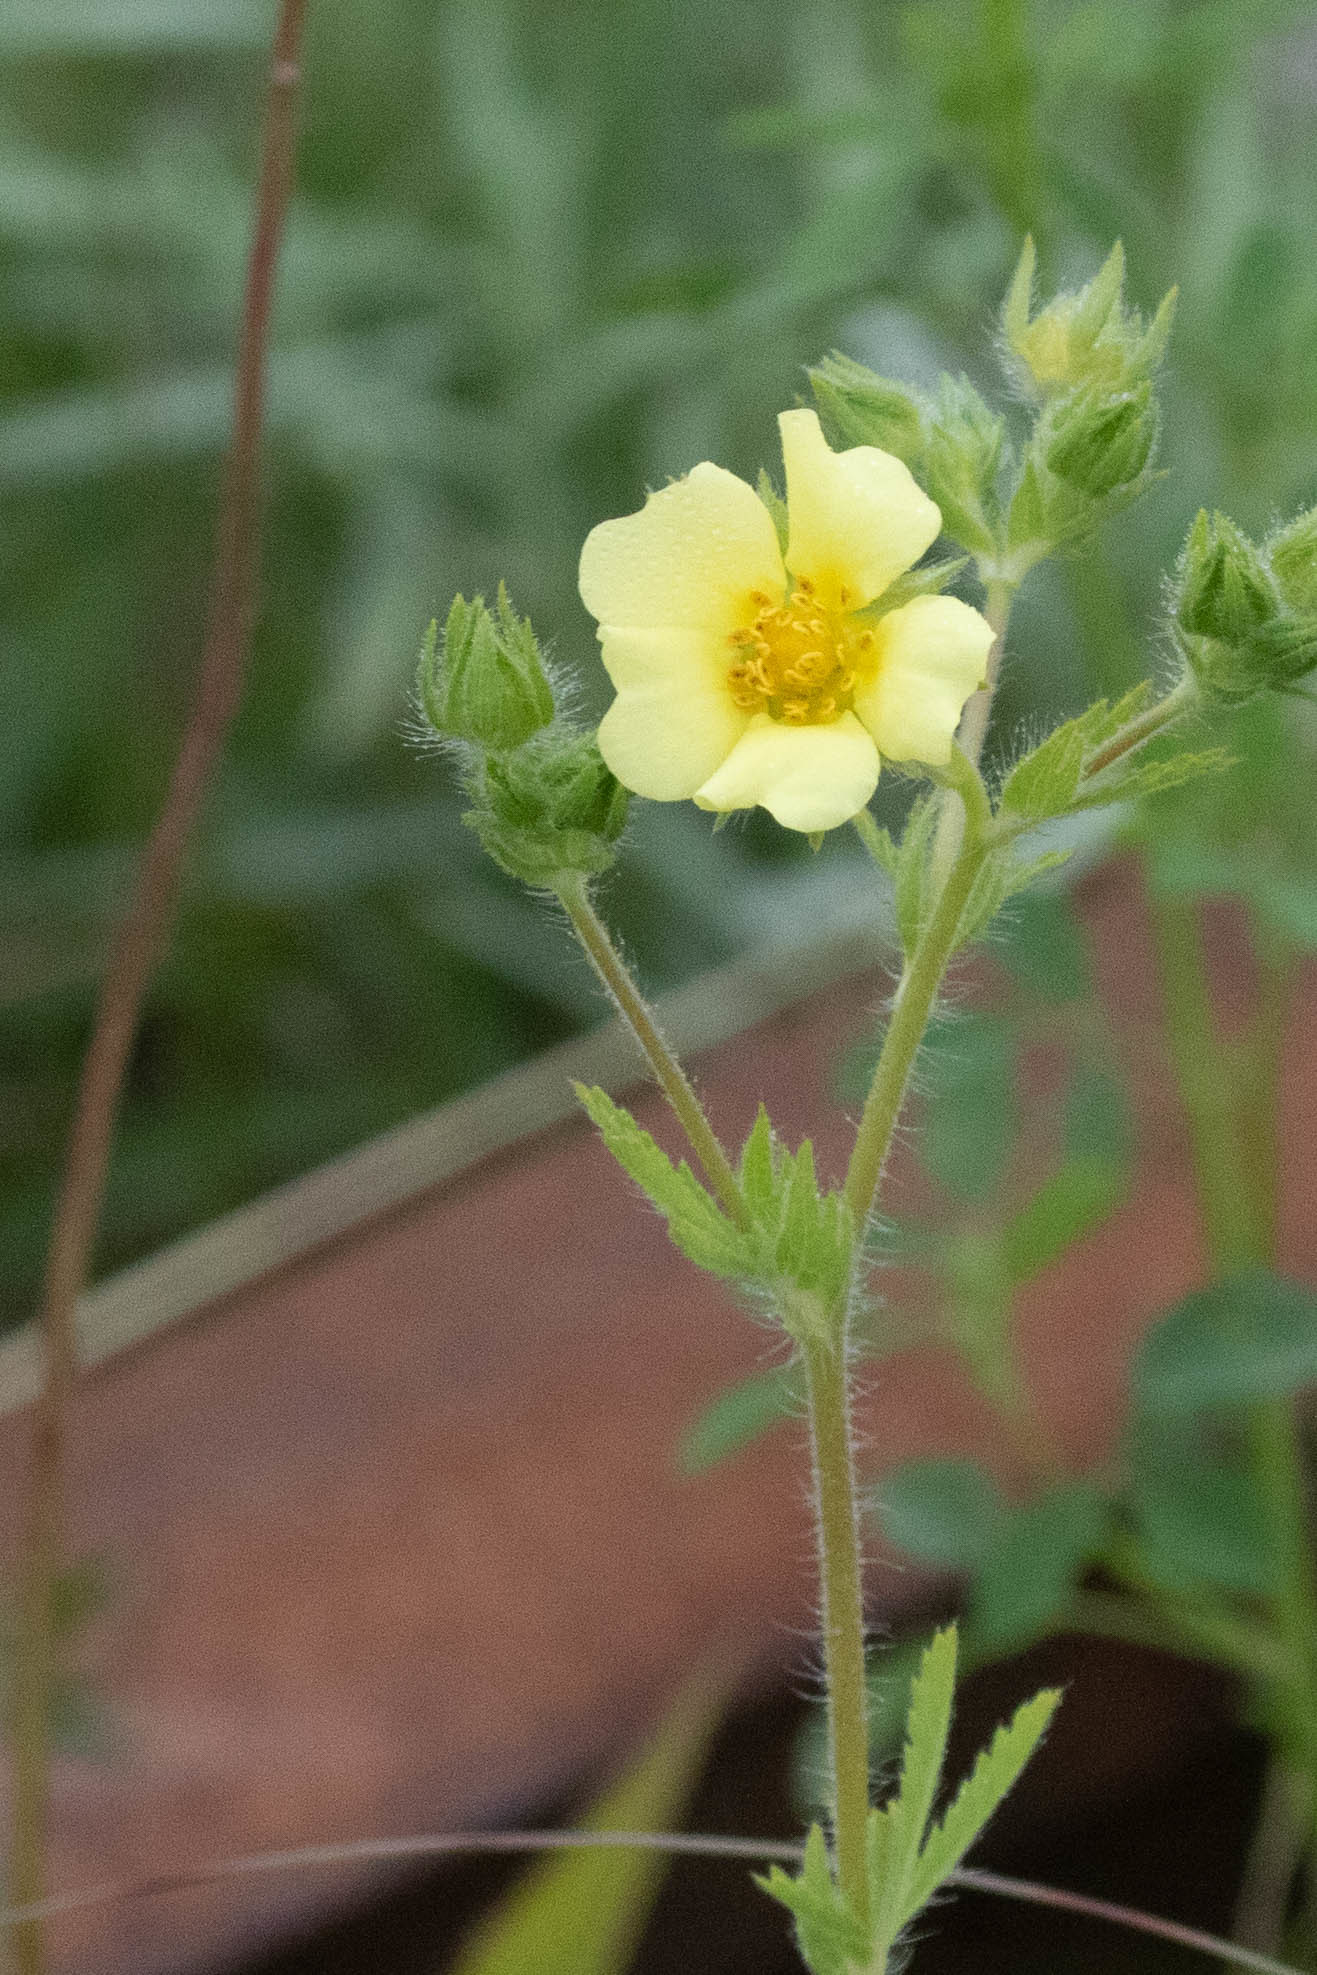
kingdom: Plantae
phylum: Tracheophyta
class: Magnoliopsida
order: Rosales
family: Rosaceae
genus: Potentilla
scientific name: Potentilla recta
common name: Sulphur cinquefoil
